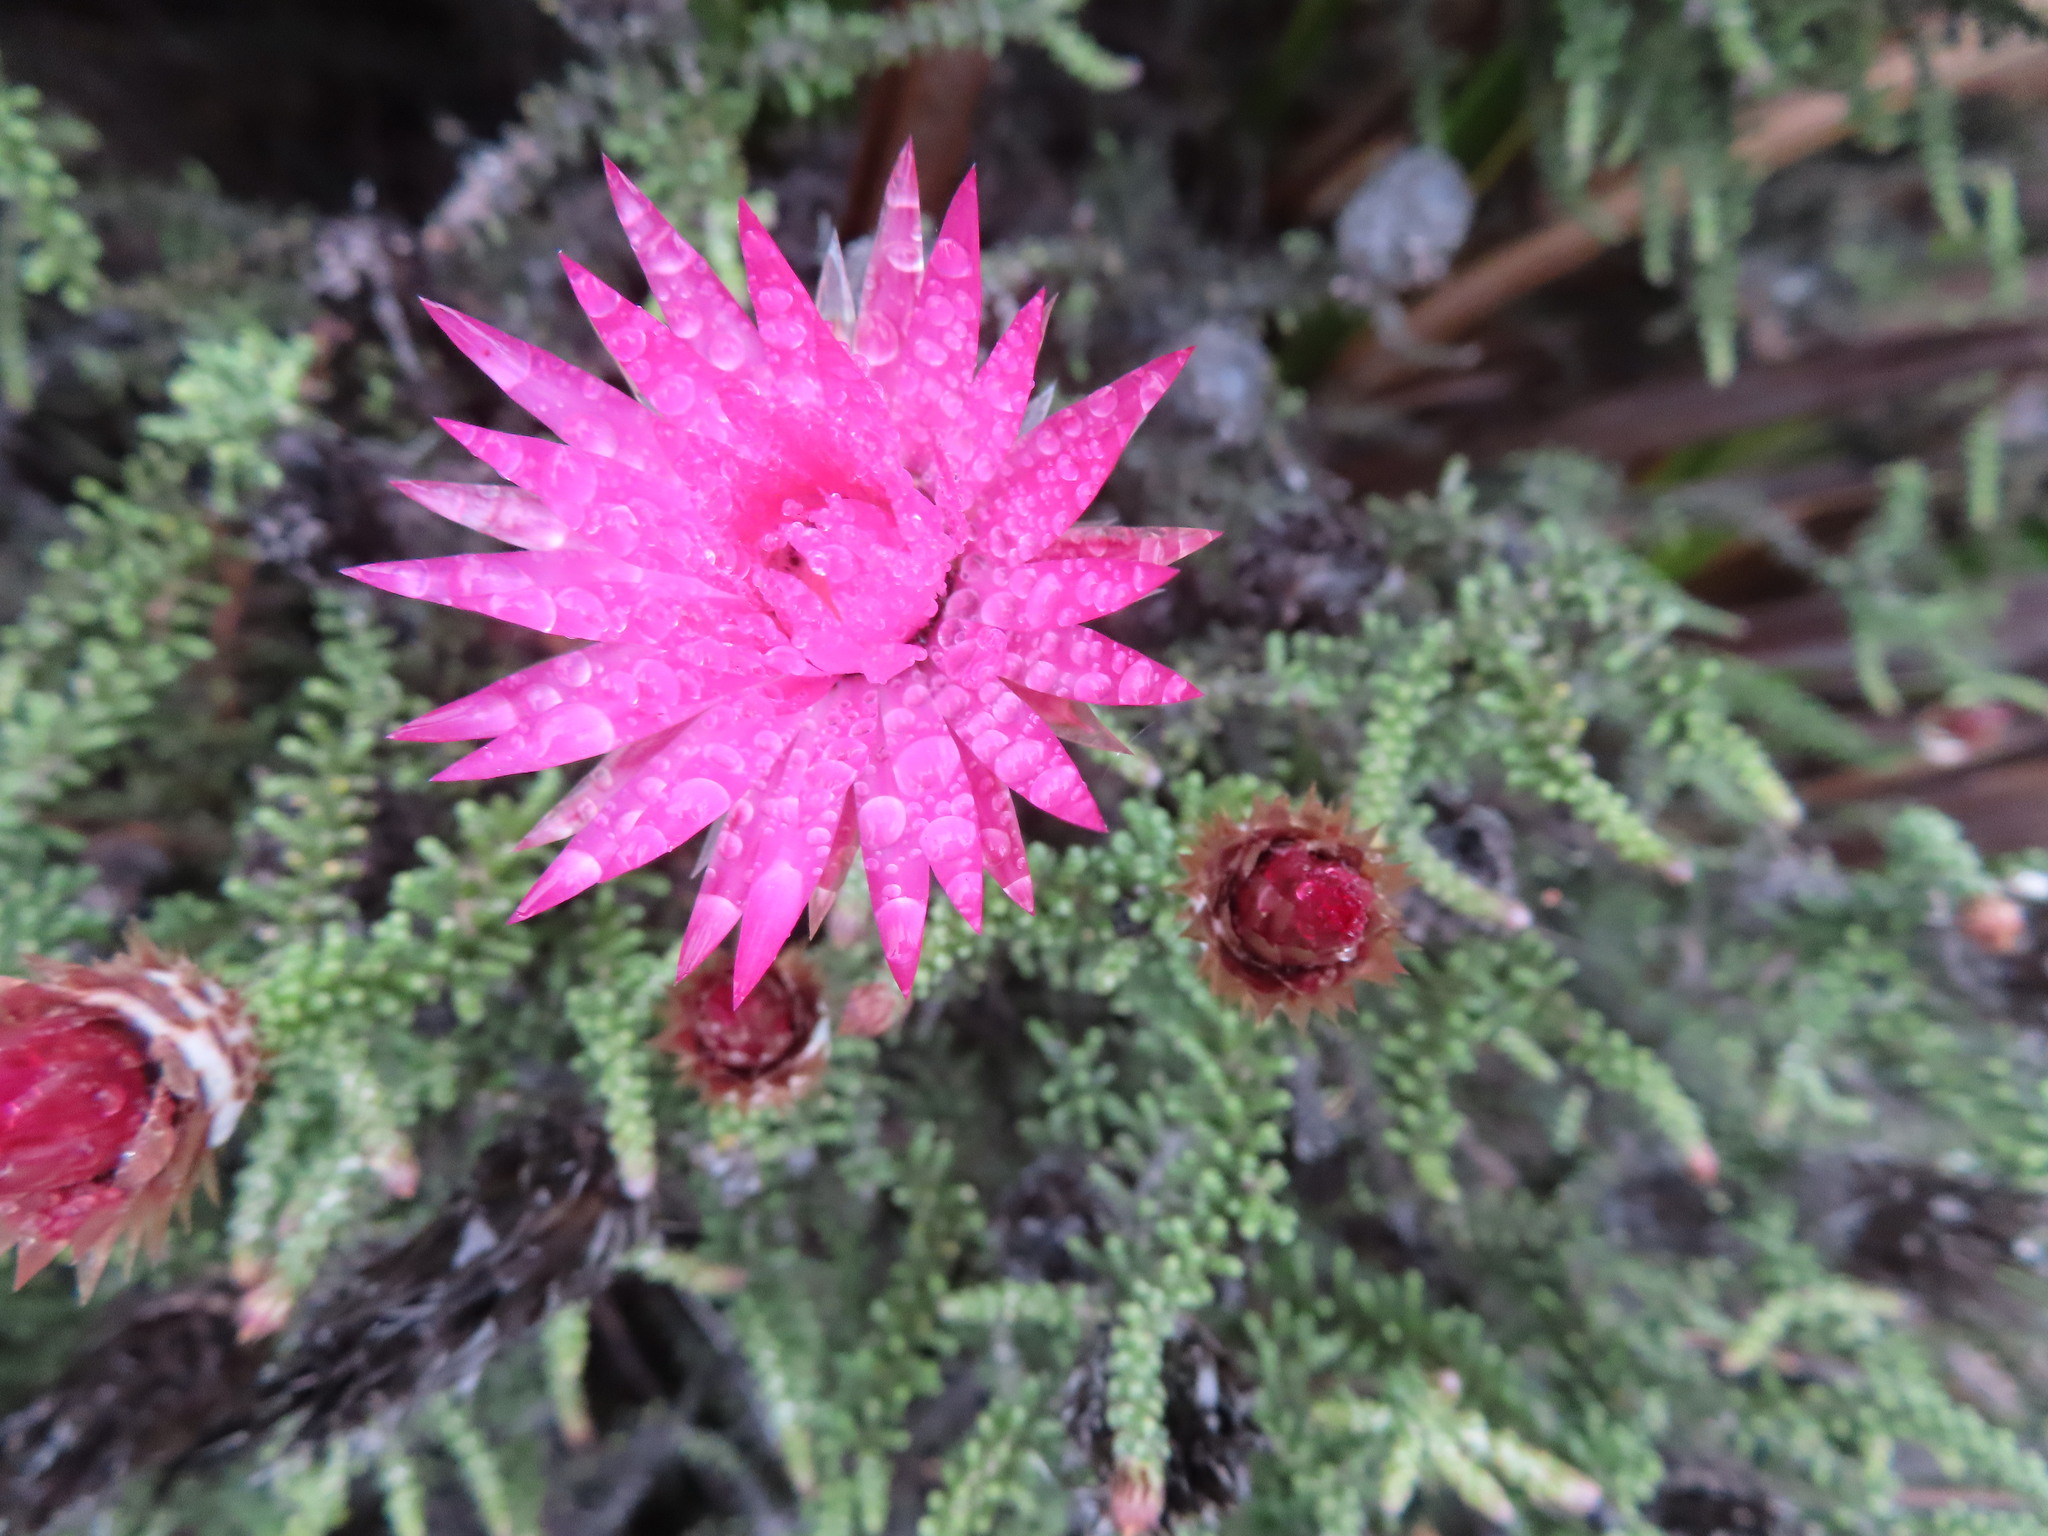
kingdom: Plantae
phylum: Tracheophyta
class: Magnoliopsida
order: Asterales
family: Asteraceae
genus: Phaenocoma
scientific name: Phaenocoma prolifera
